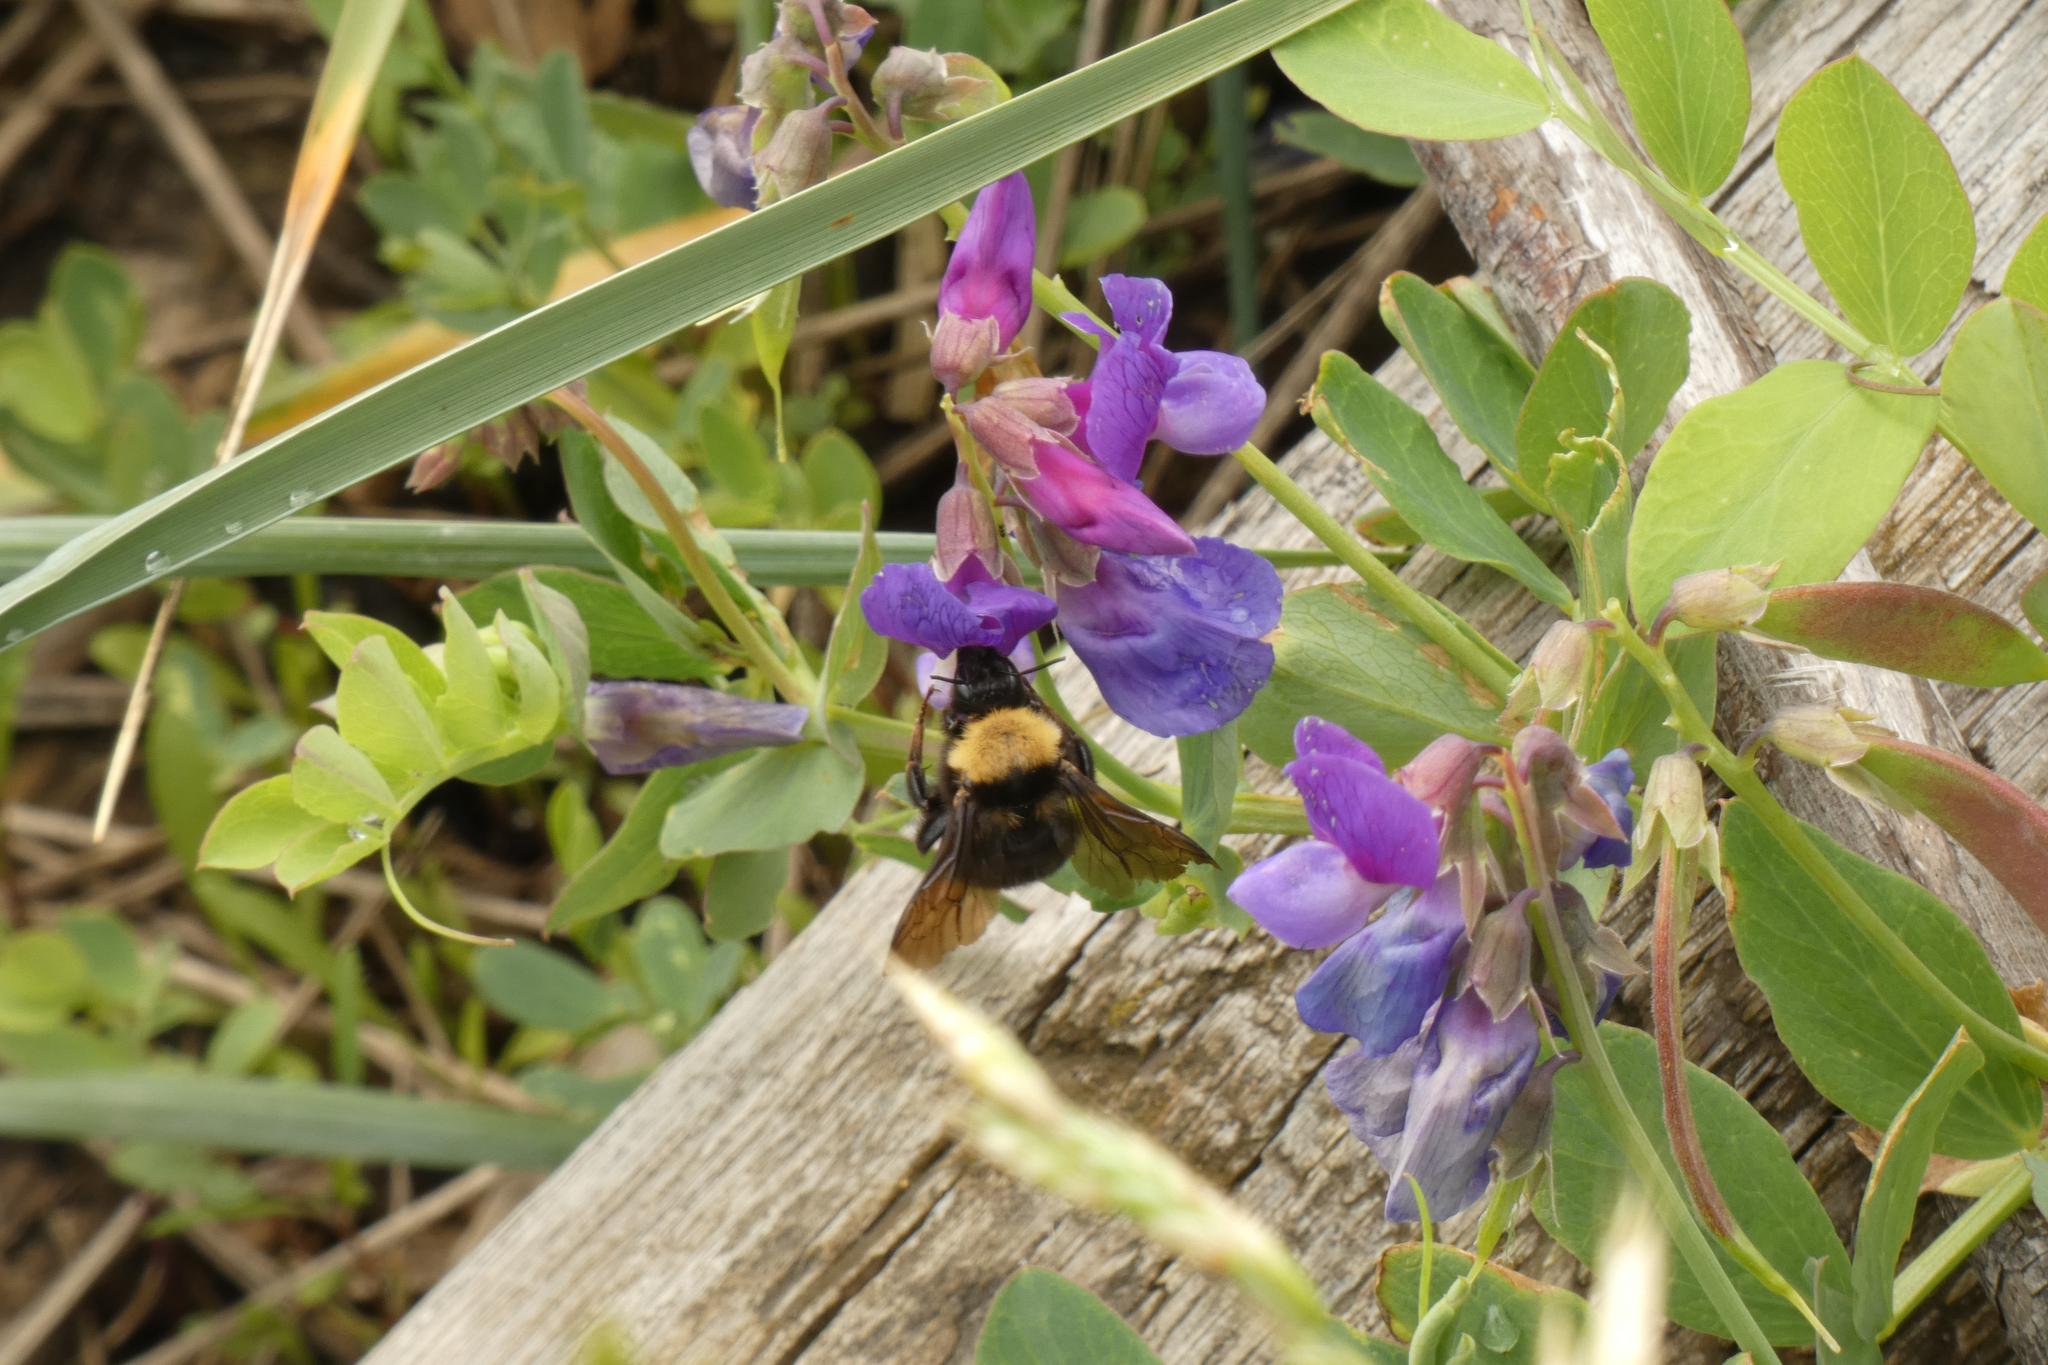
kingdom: Animalia
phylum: Arthropoda
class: Insecta
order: Hymenoptera
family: Apidae
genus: Bombus
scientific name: Bombus californicus
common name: California bumble bee
